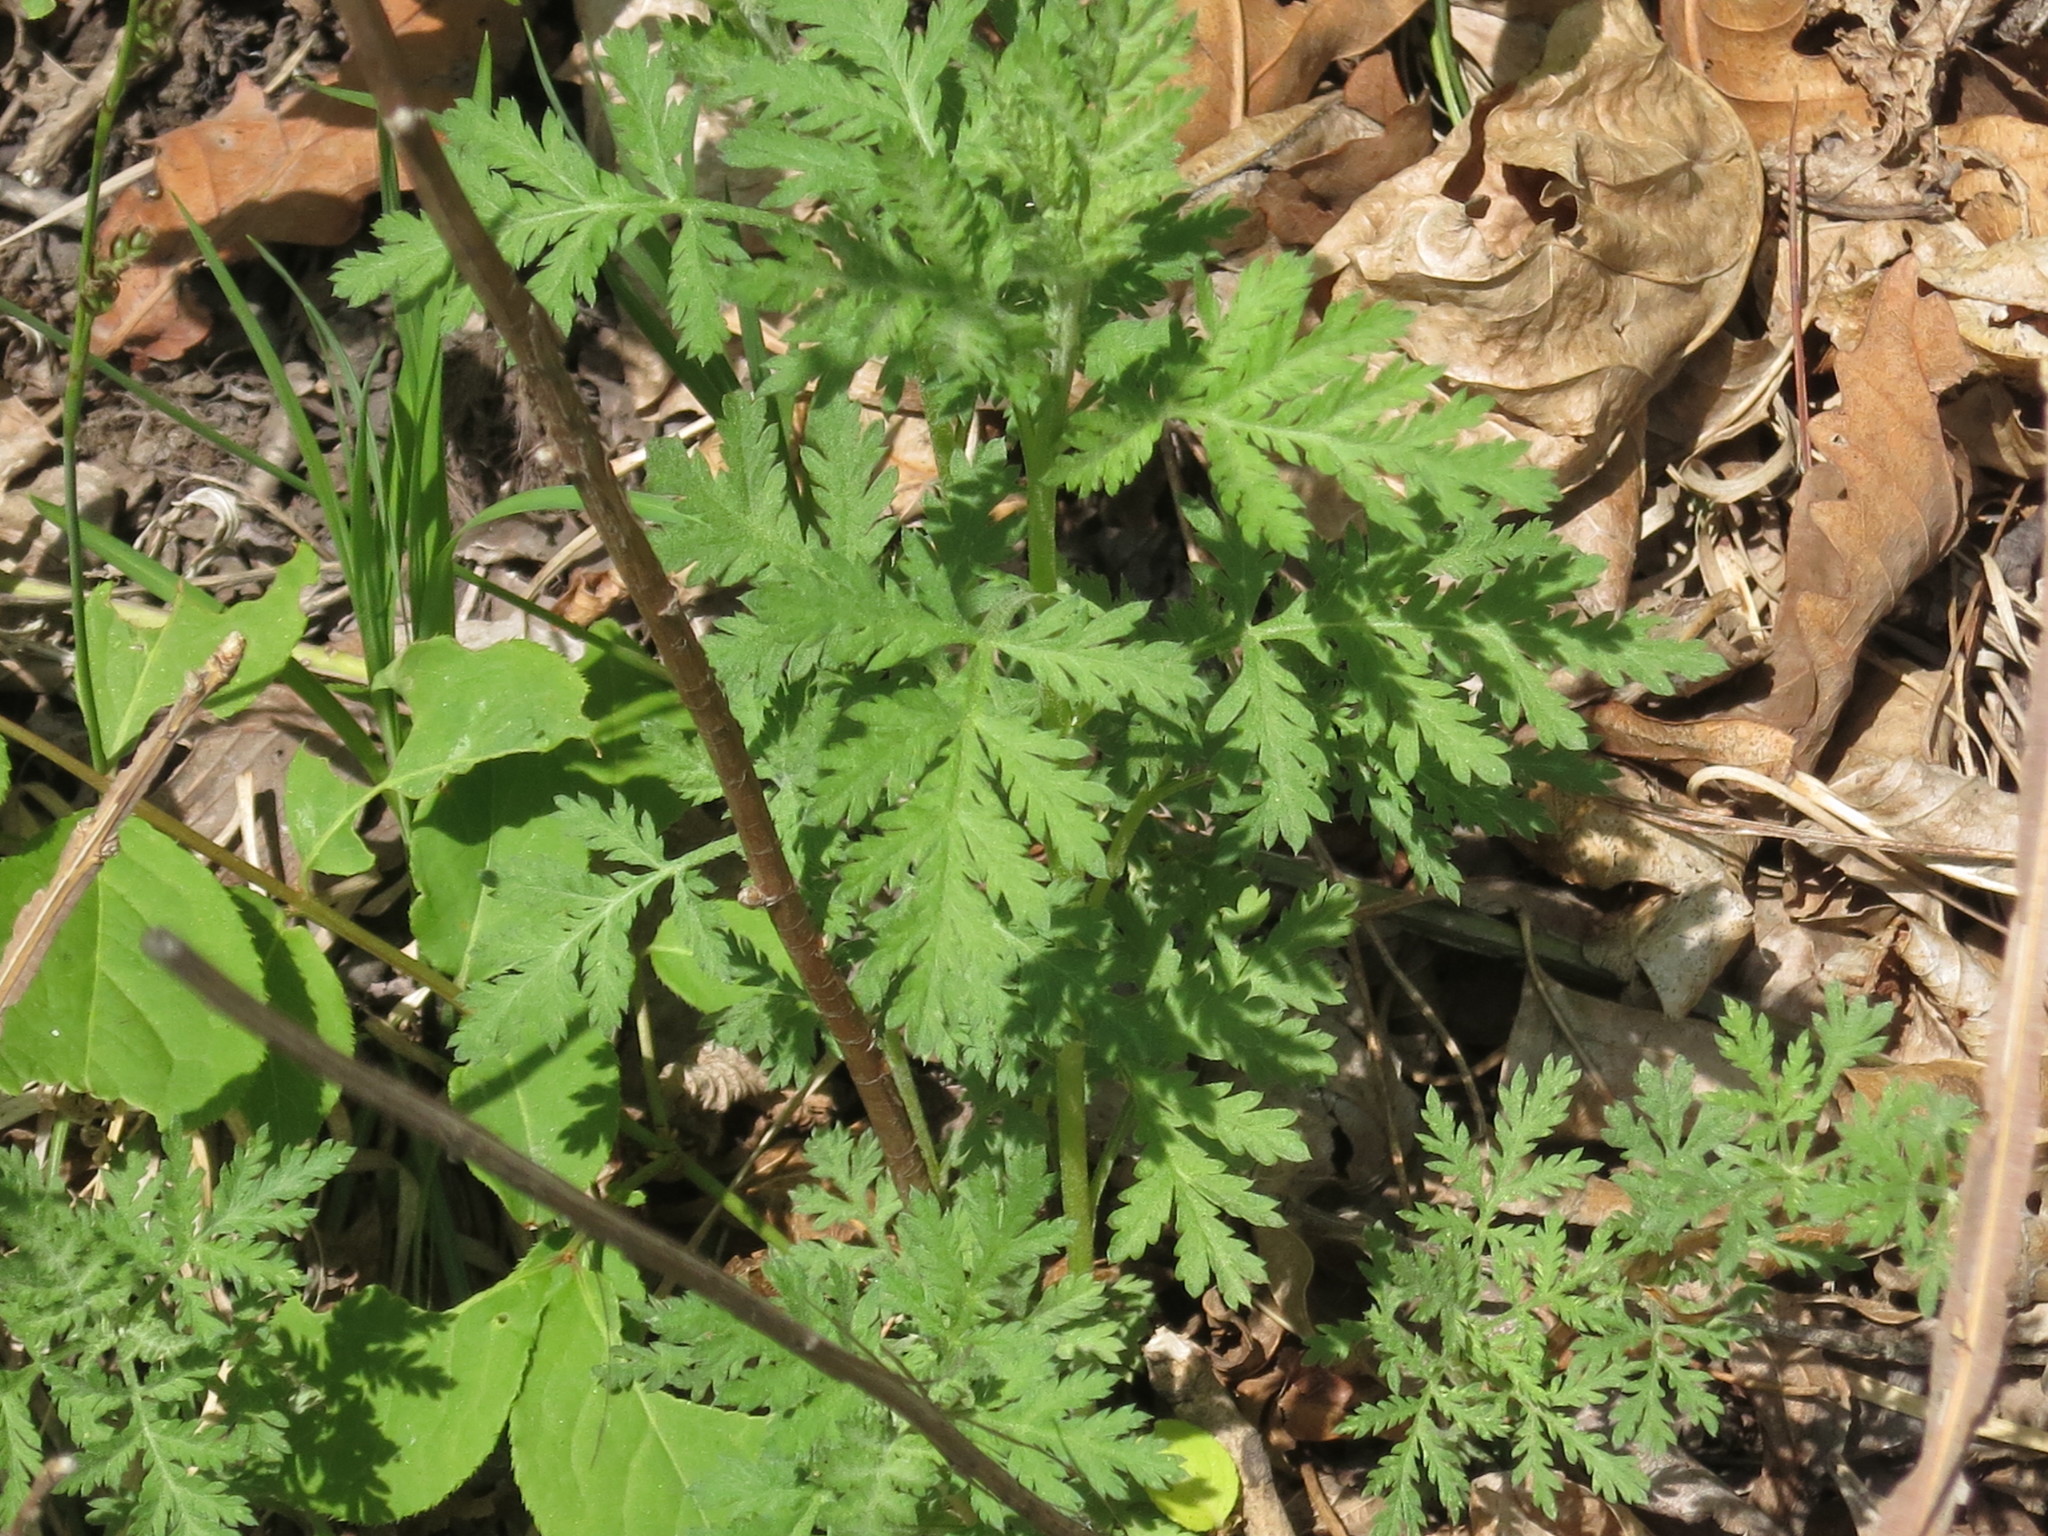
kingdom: Plantae
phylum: Tracheophyta
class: Magnoliopsida
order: Asterales
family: Asteraceae
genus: Artemisia
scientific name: Artemisia gmelinii
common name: Gmelin's wormwood
